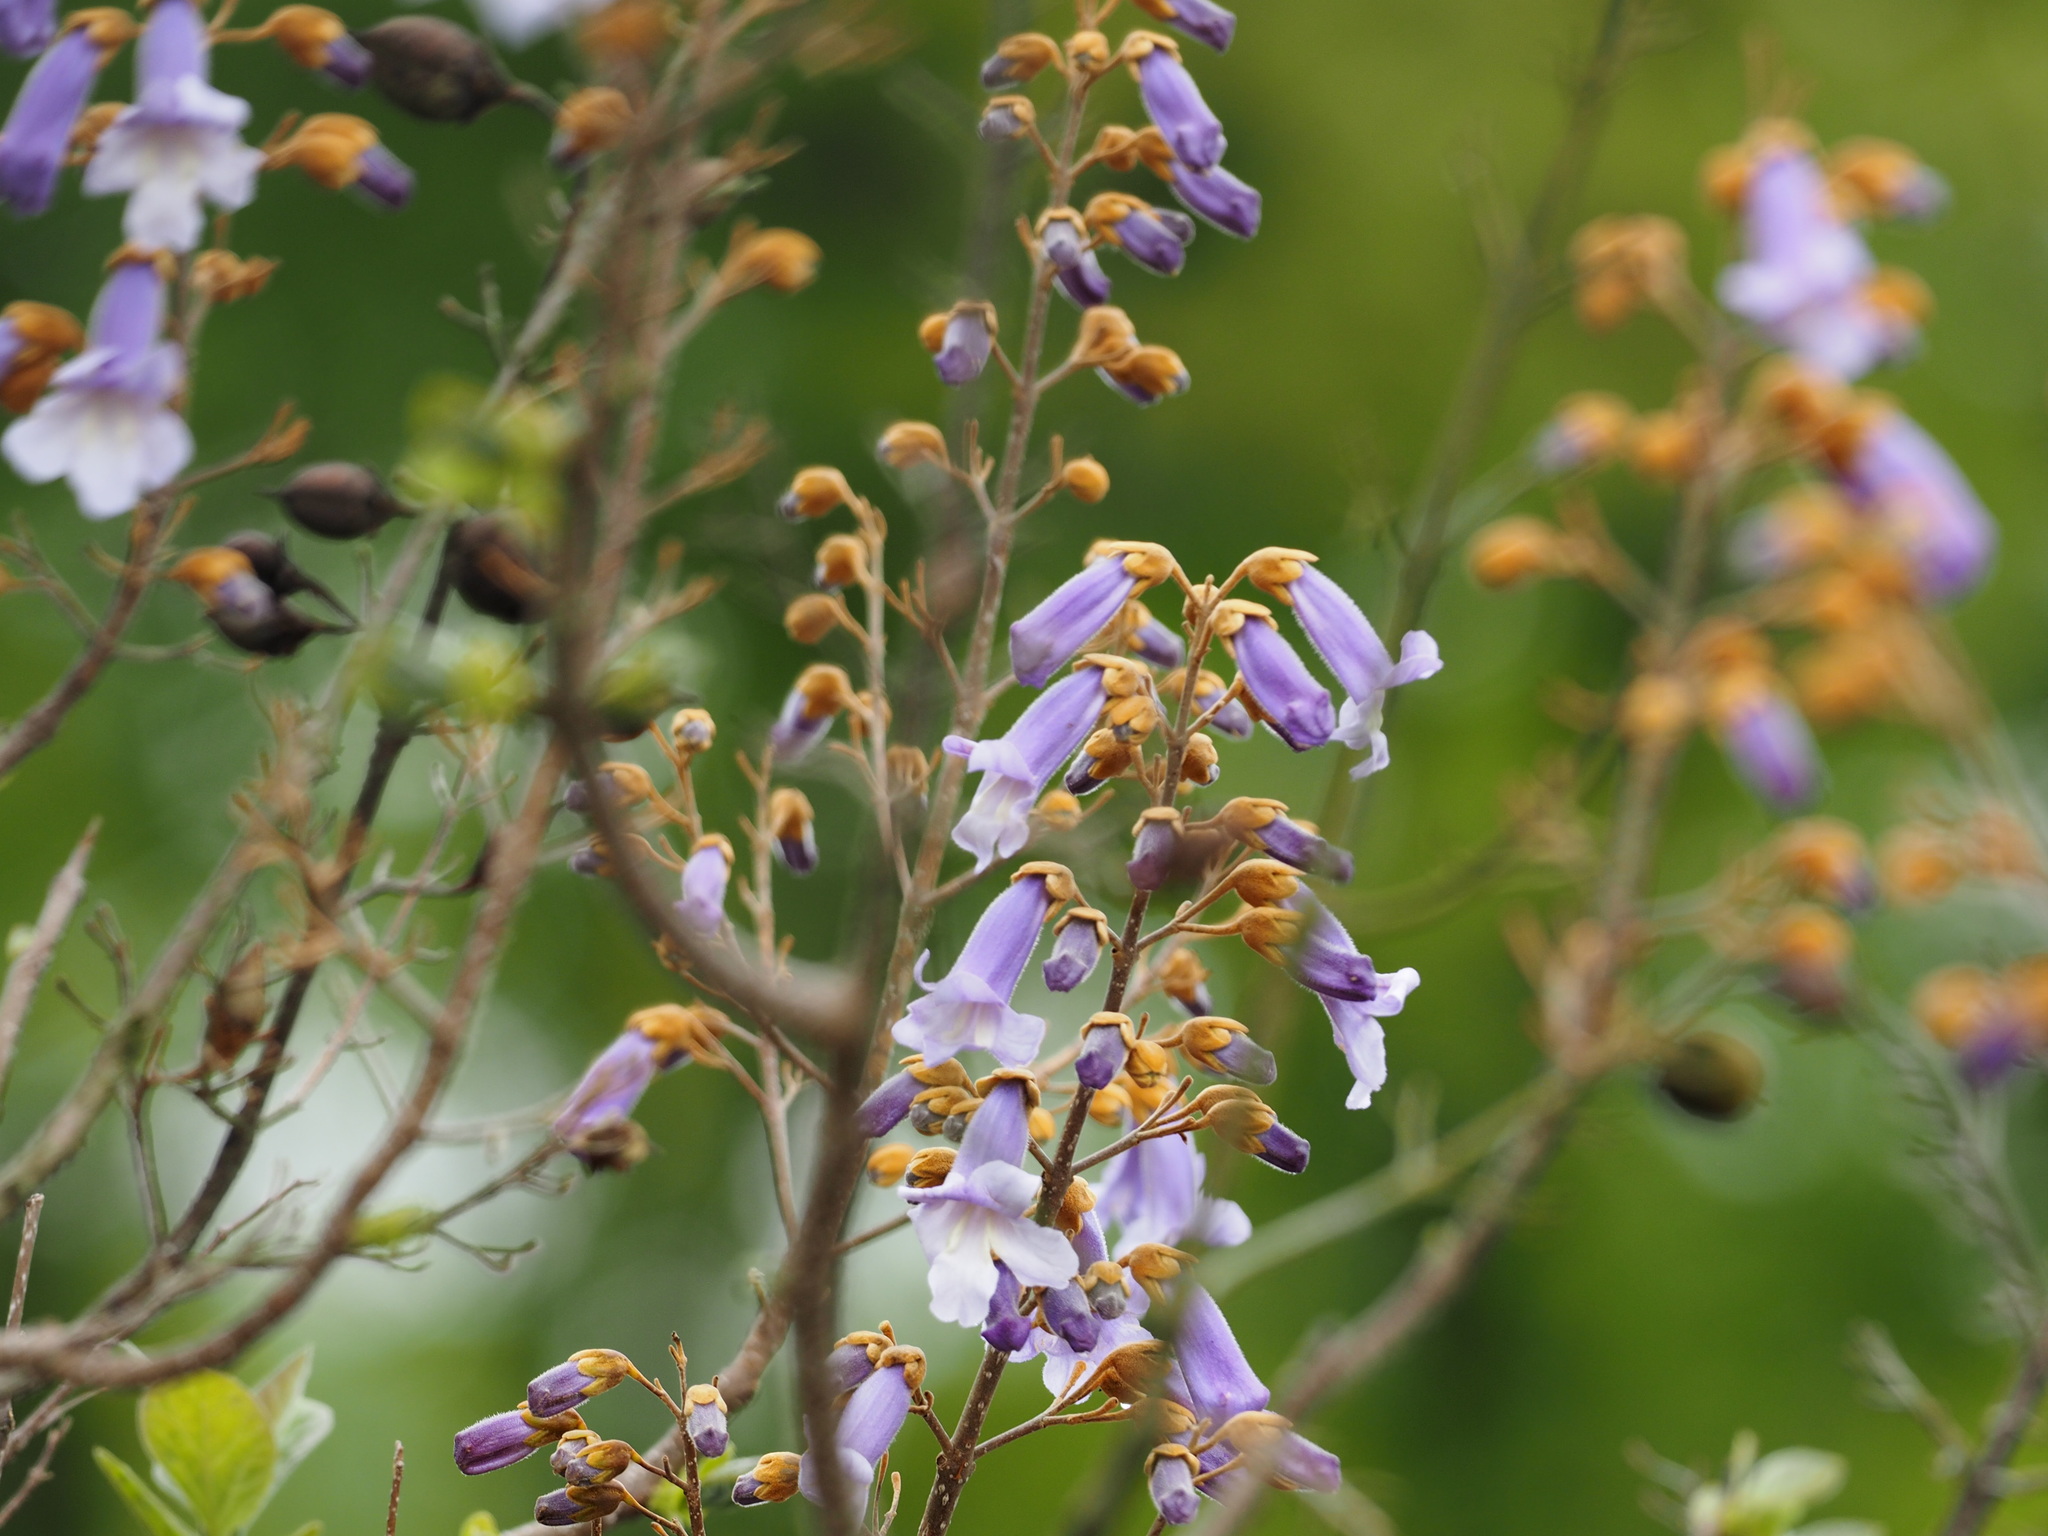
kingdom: Plantae
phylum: Tracheophyta
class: Magnoliopsida
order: Lamiales
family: Paulowniaceae
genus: Paulownia
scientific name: Paulownia tomentosa
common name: Foxglove-tree
